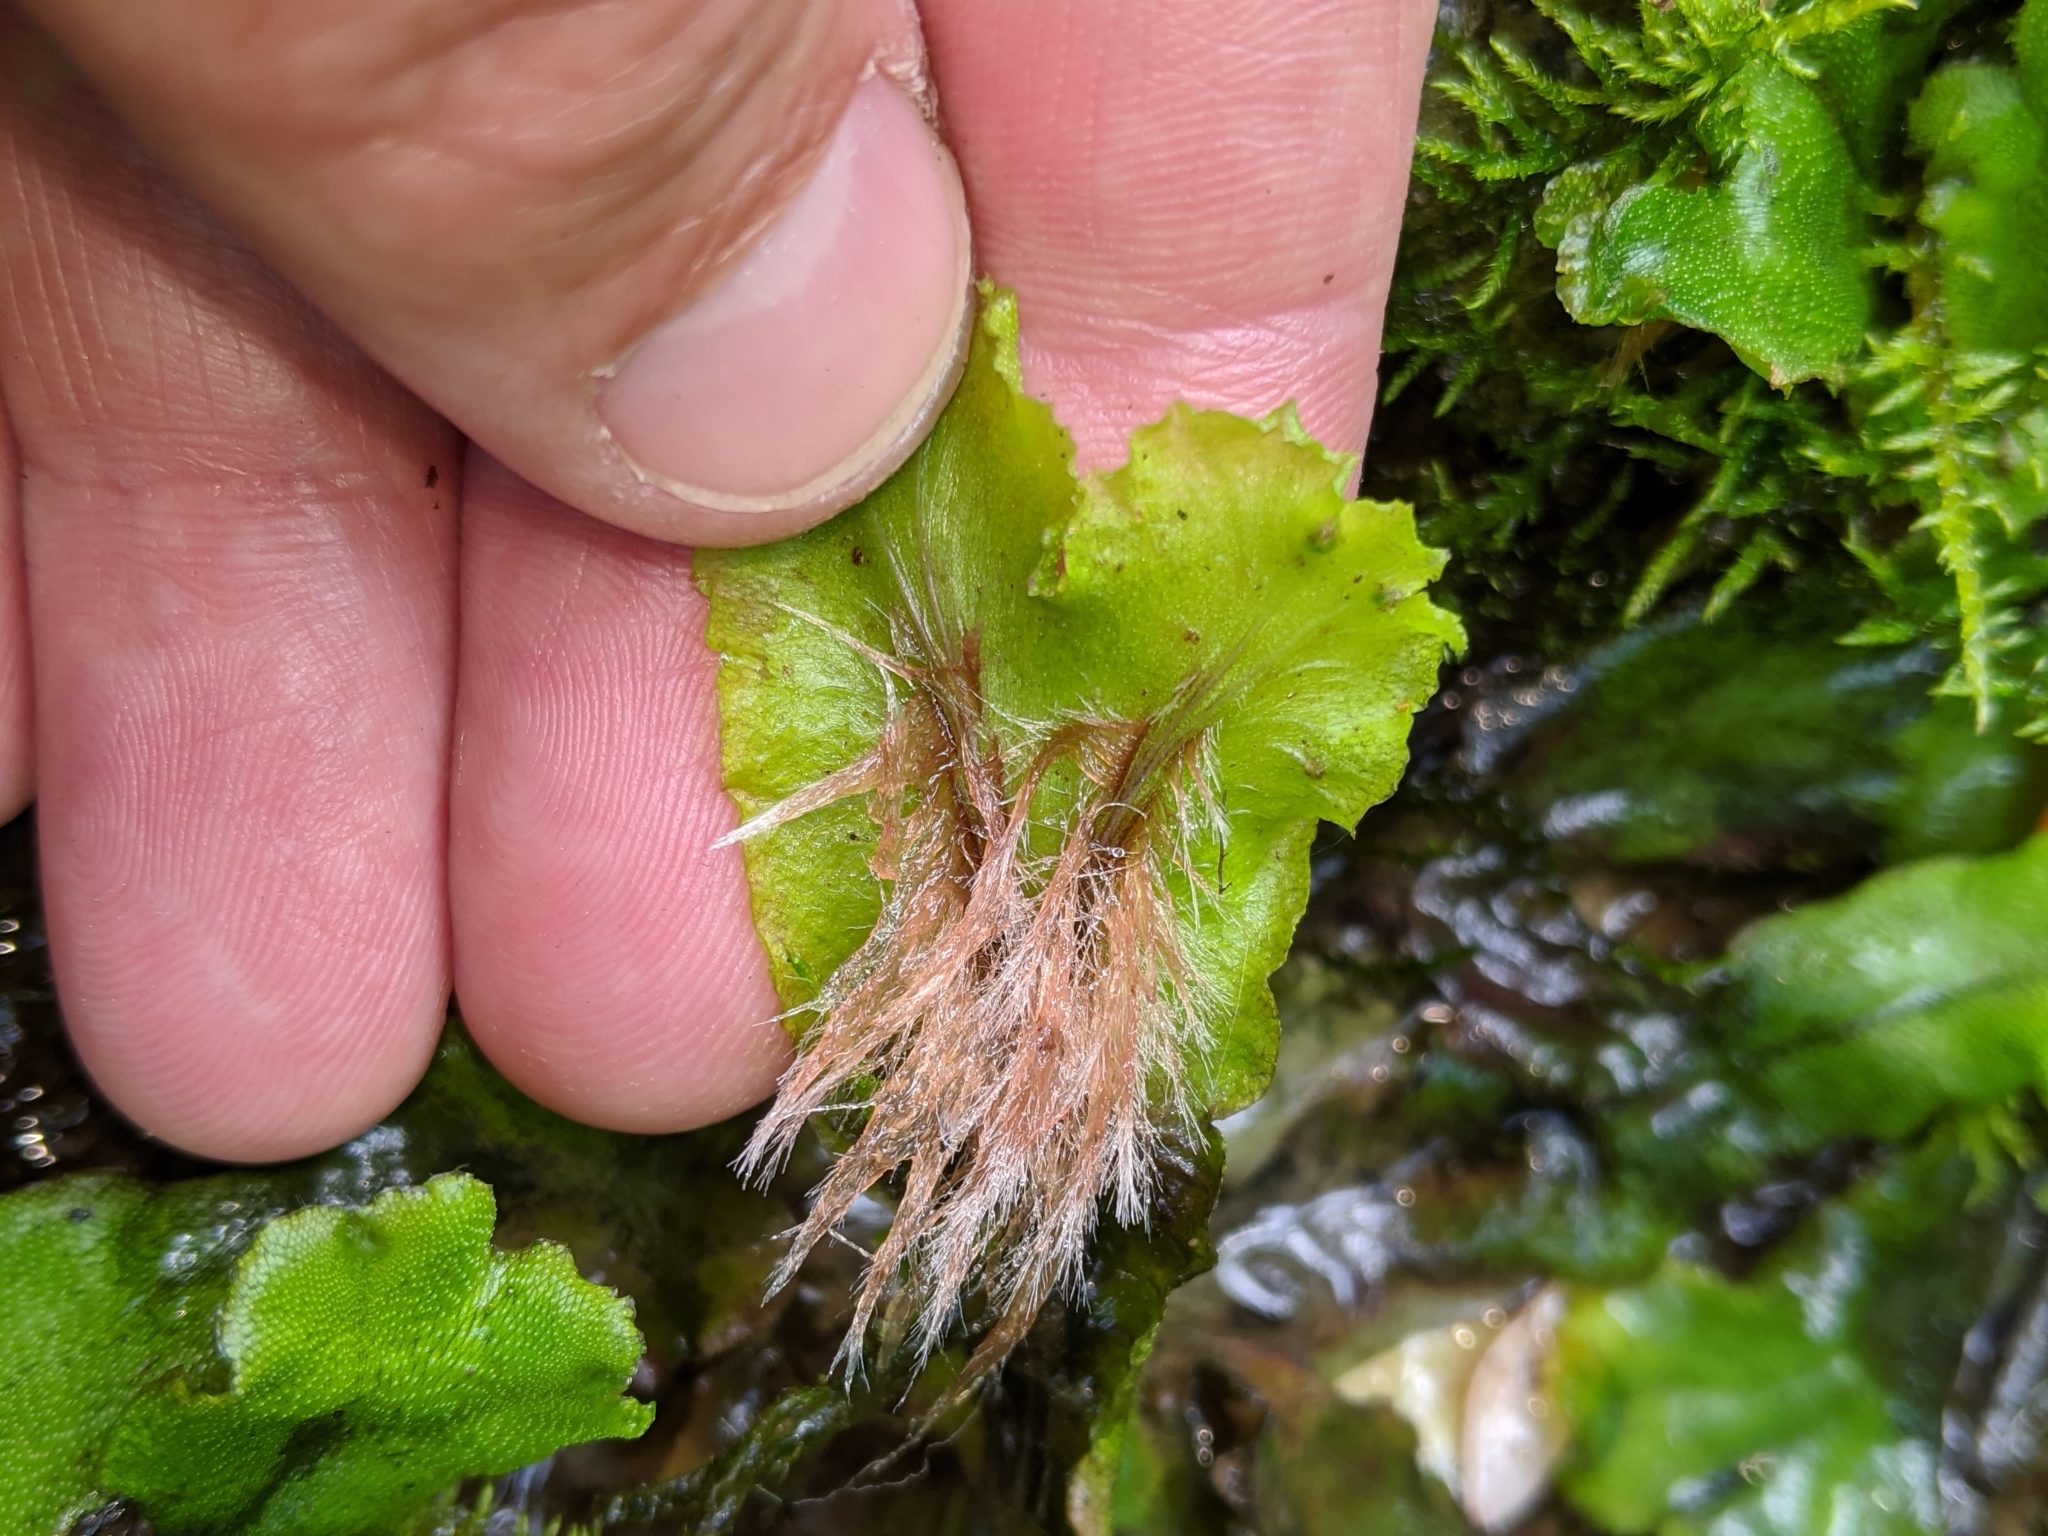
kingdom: Plantae
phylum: Marchantiophyta
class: Marchantiopsida
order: Marchantiales
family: Marchantiaceae
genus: Marchantia
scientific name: Marchantia polymorpha
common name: Common liverwort
